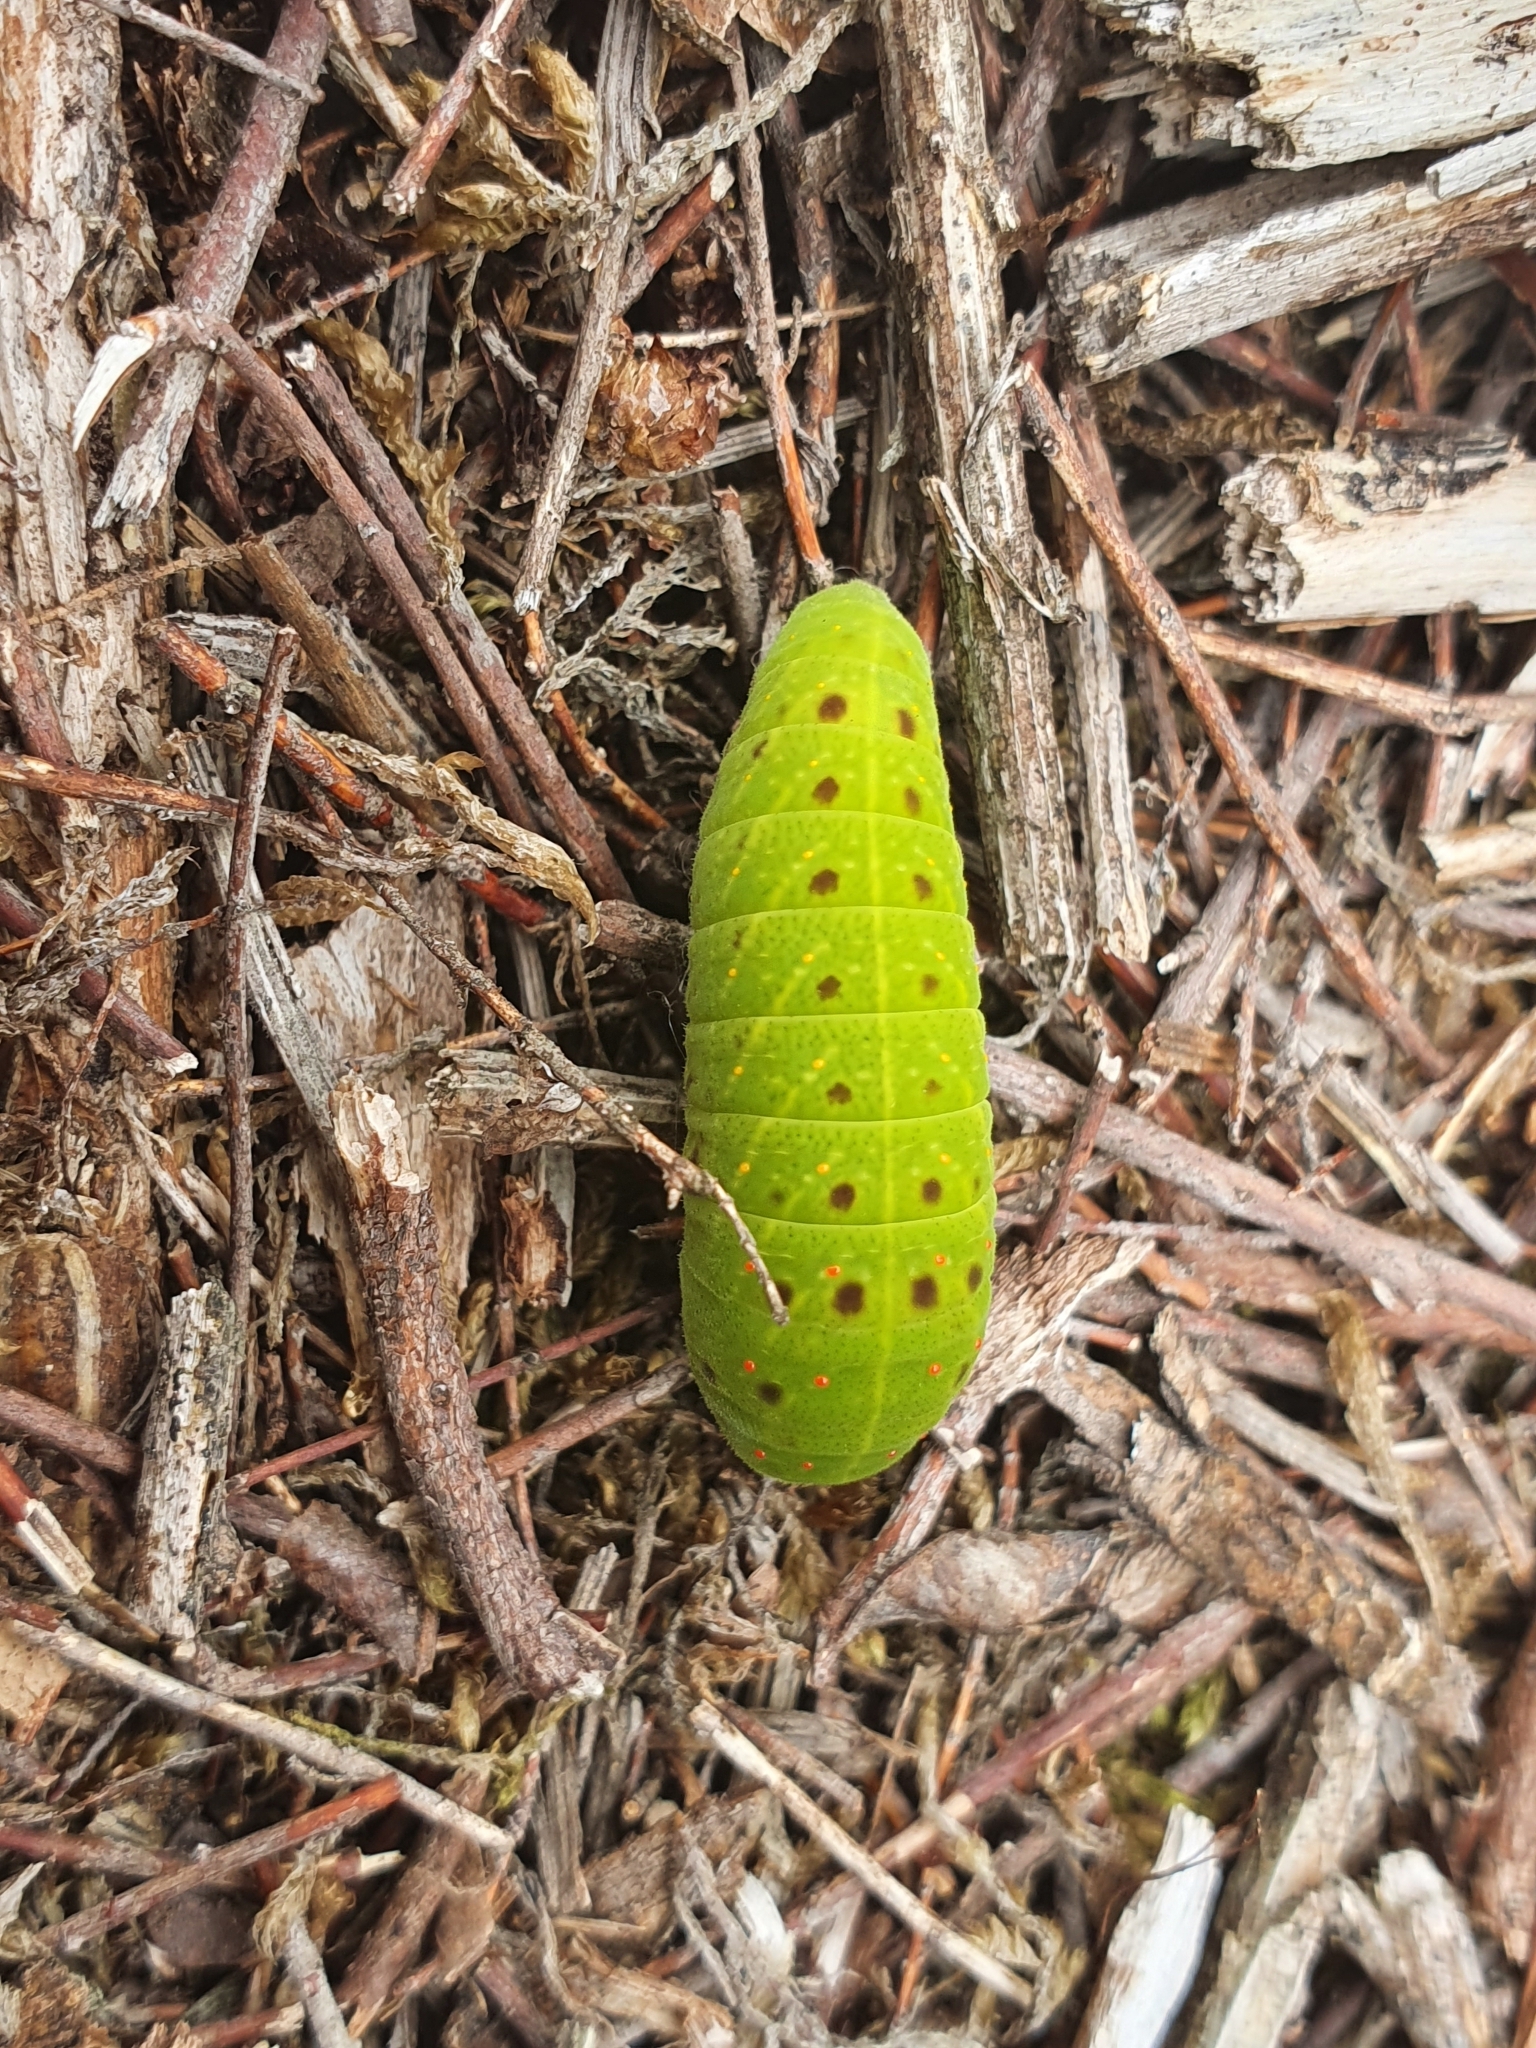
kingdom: Animalia
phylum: Arthropoda
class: Insecta
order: Lepidoptera
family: Papilionidae
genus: Iphiclides
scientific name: Iphiclides feisthamelii
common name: Iberian scarce swallowtail
